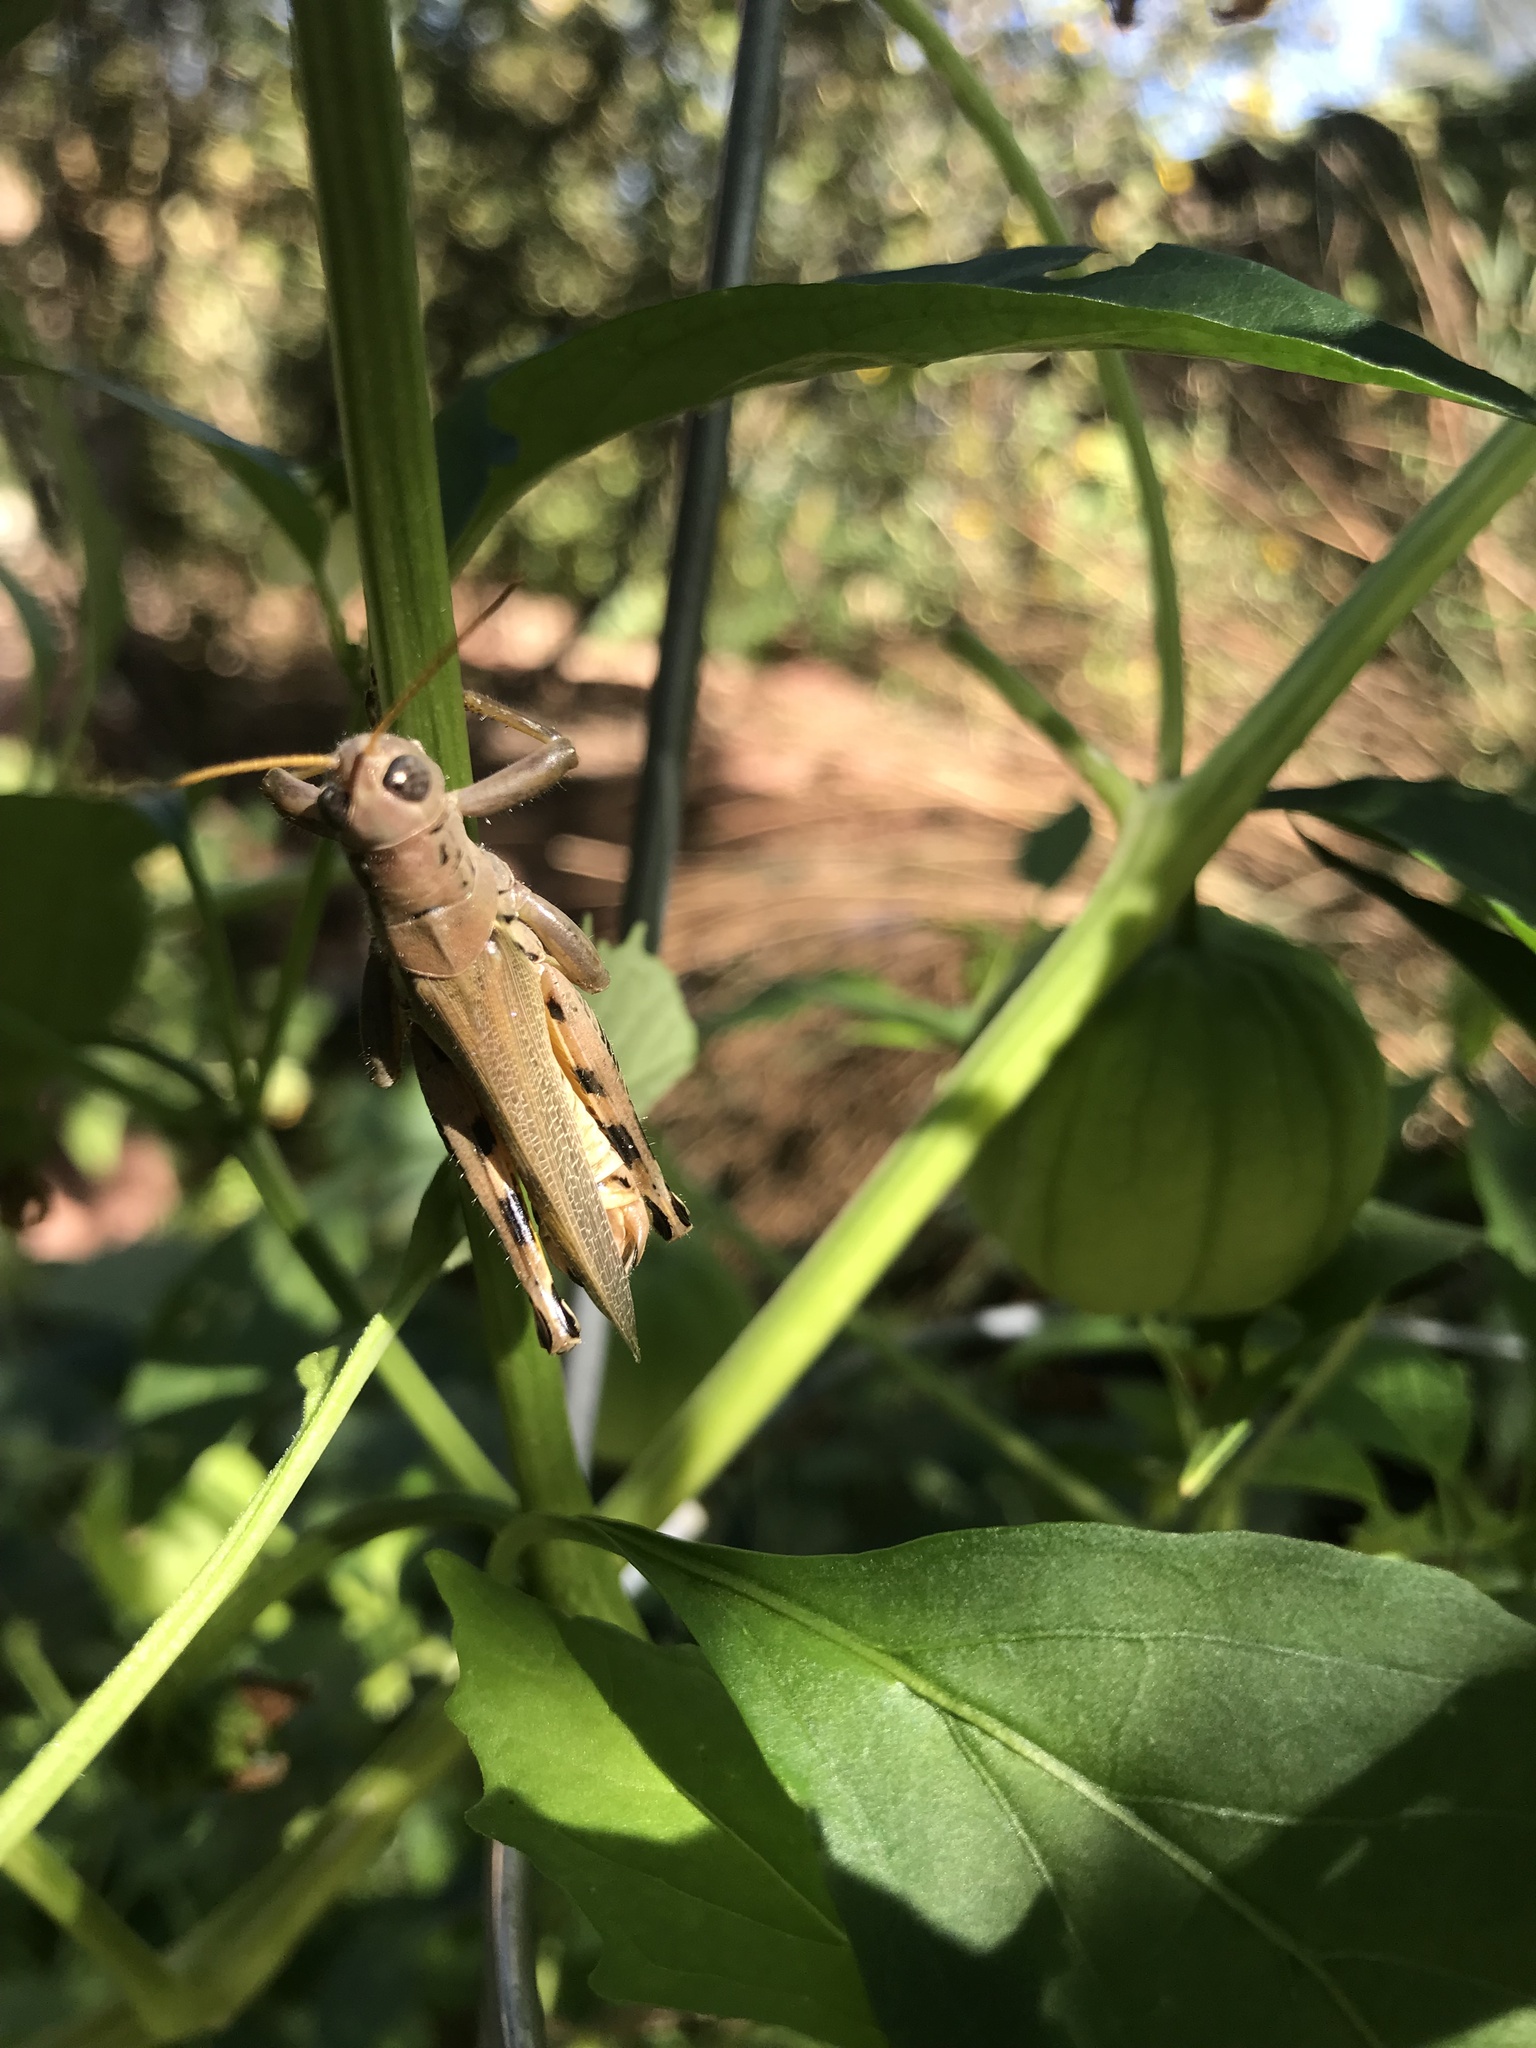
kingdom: Animalia
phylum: Arthropoda
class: Insecta
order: Orthoptera
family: Acrididae
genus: Melanoplus
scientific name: Melanoplus differentialis
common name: Differential grasshopper
